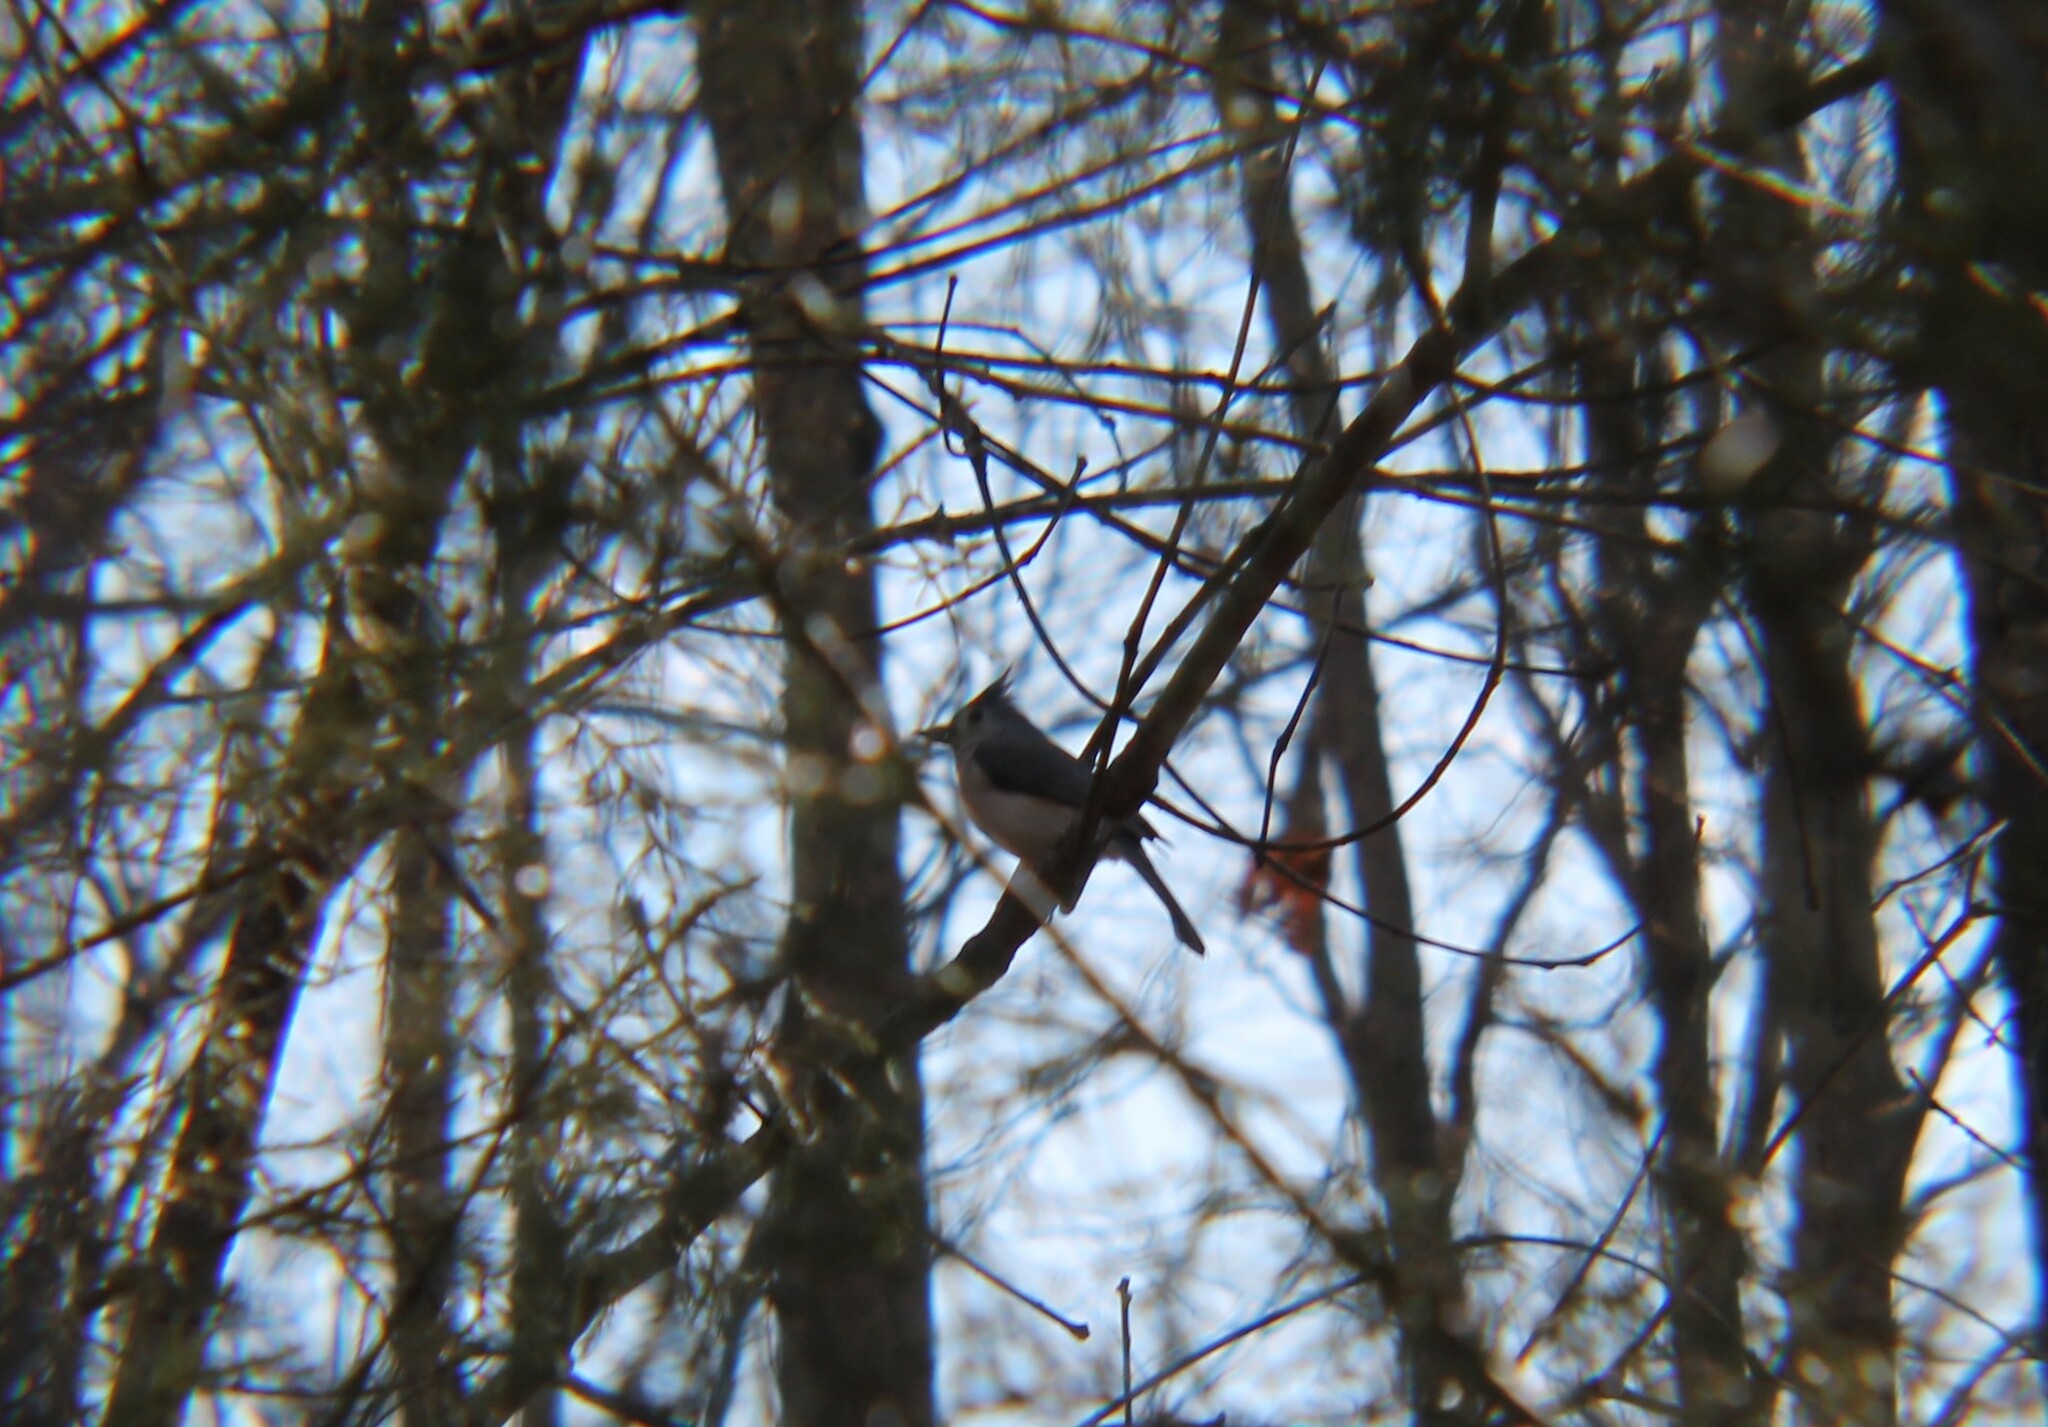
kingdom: Animalia
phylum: Chordata
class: Aves
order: Passeriformes
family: Paridae
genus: Baeolophus
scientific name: Baeolophus bicolor
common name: Tufted titmouse
